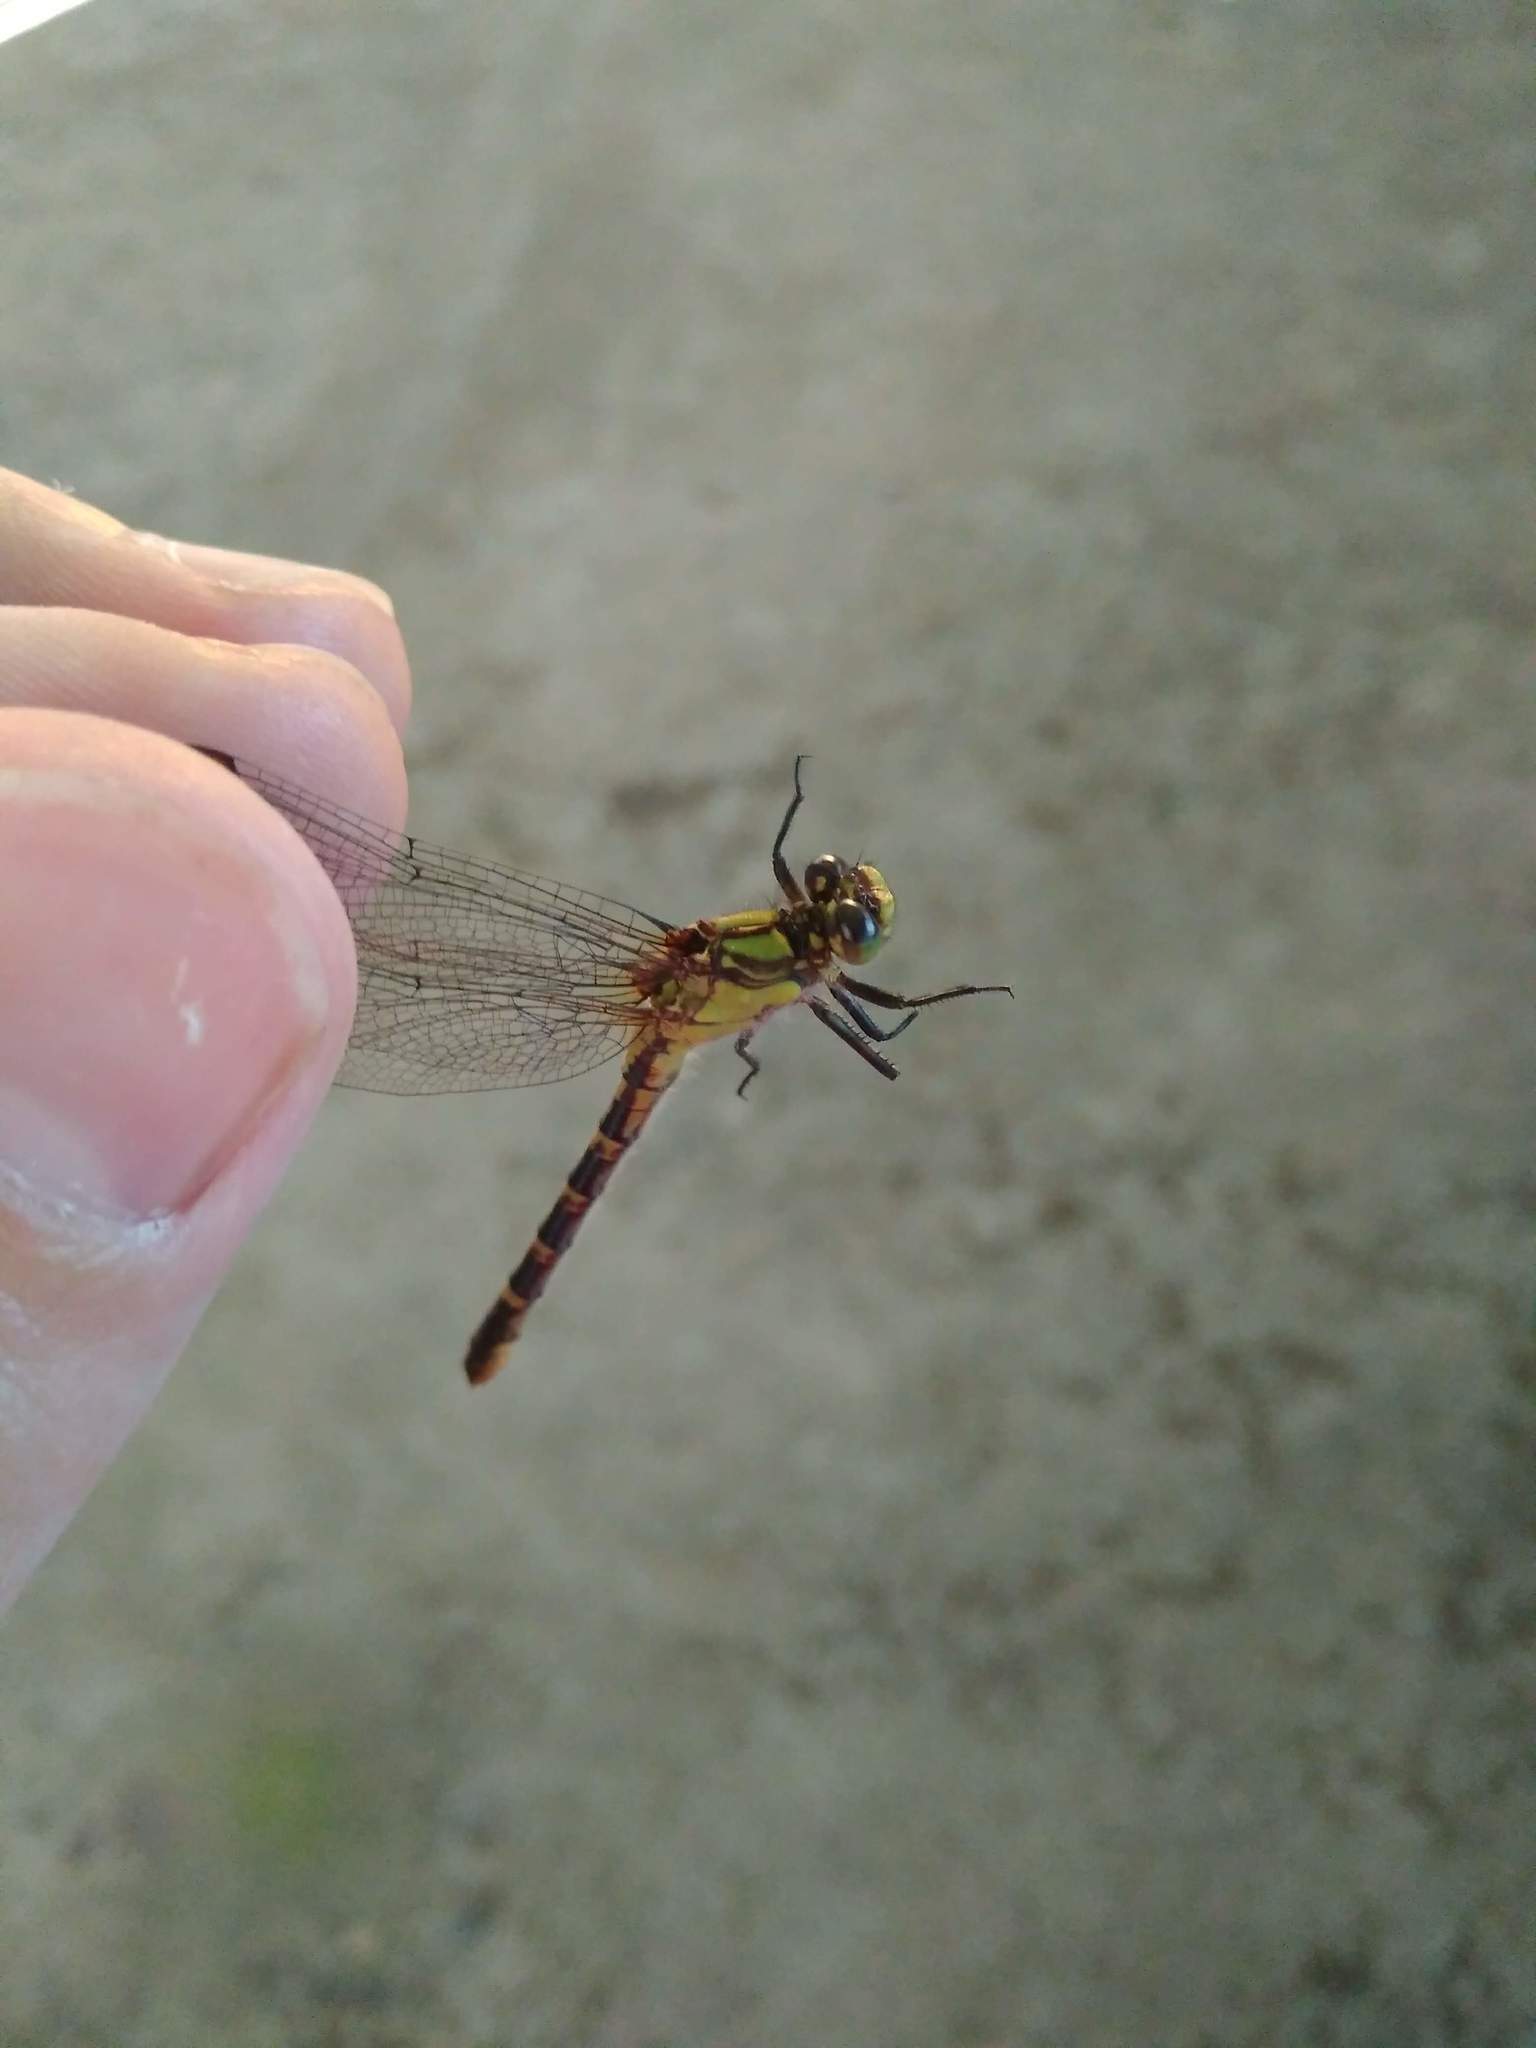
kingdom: Animalia
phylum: Arthropoda
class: Insecta
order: Odonata
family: Gomphidae
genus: Neogomphus
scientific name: Neogomphus molestus
